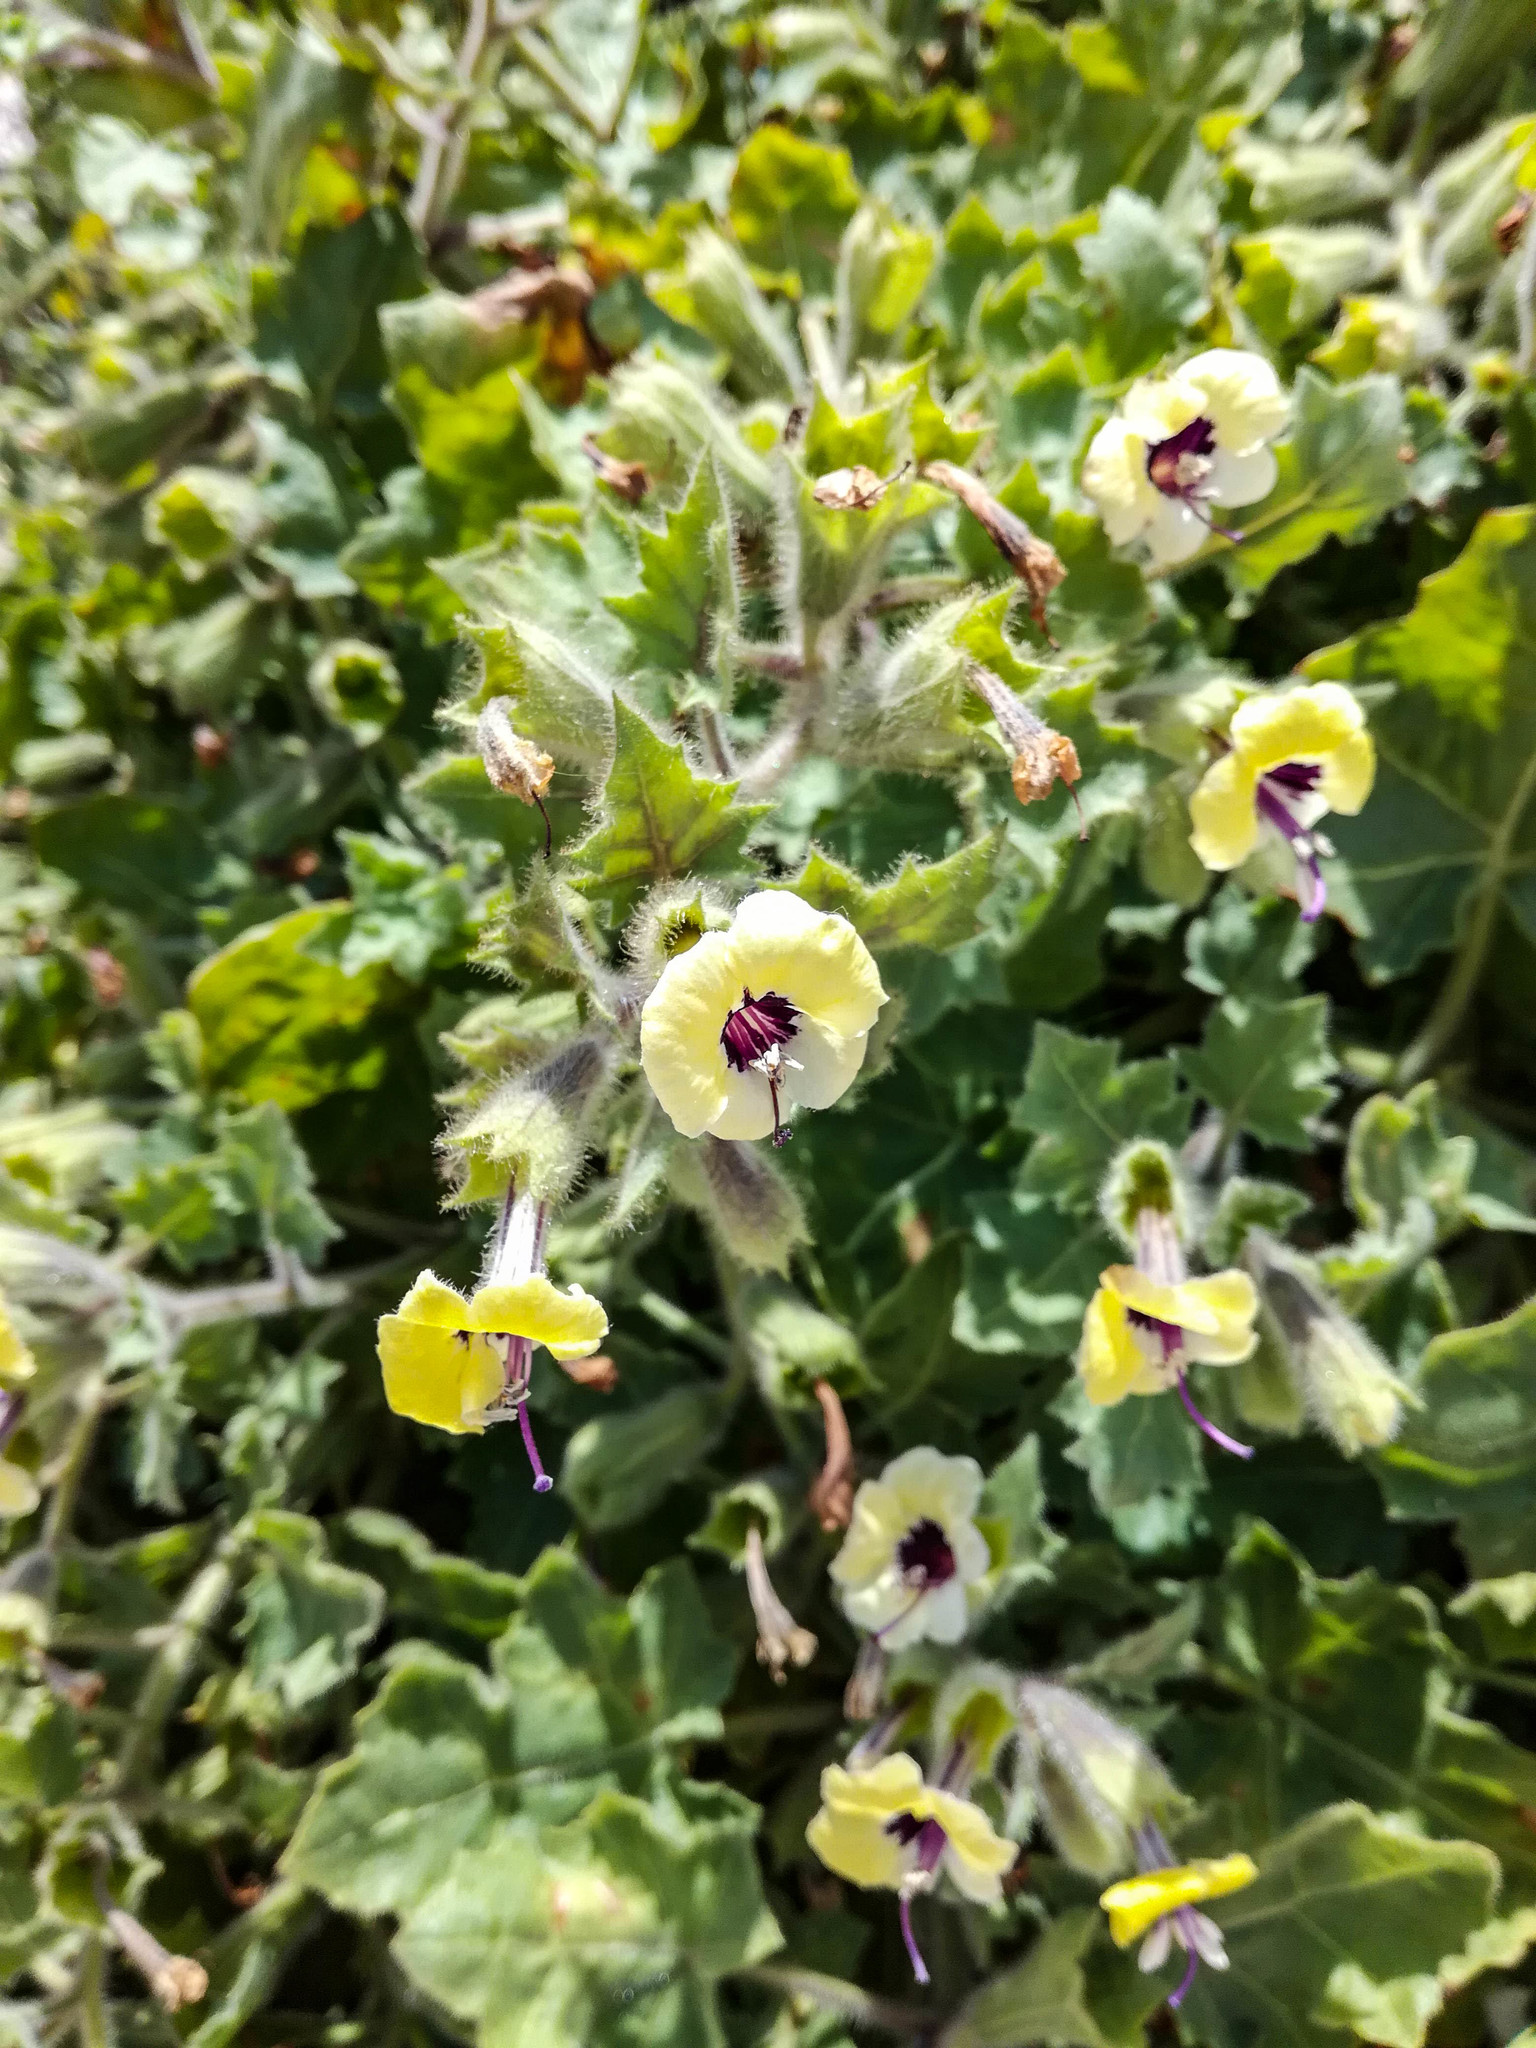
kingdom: Plantae
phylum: Tracheophyta
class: Magnoliopsida
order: Solanales
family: Solanaceae
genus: Hyoscyamus
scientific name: Hyoscyamus aureus
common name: Golden henbane
